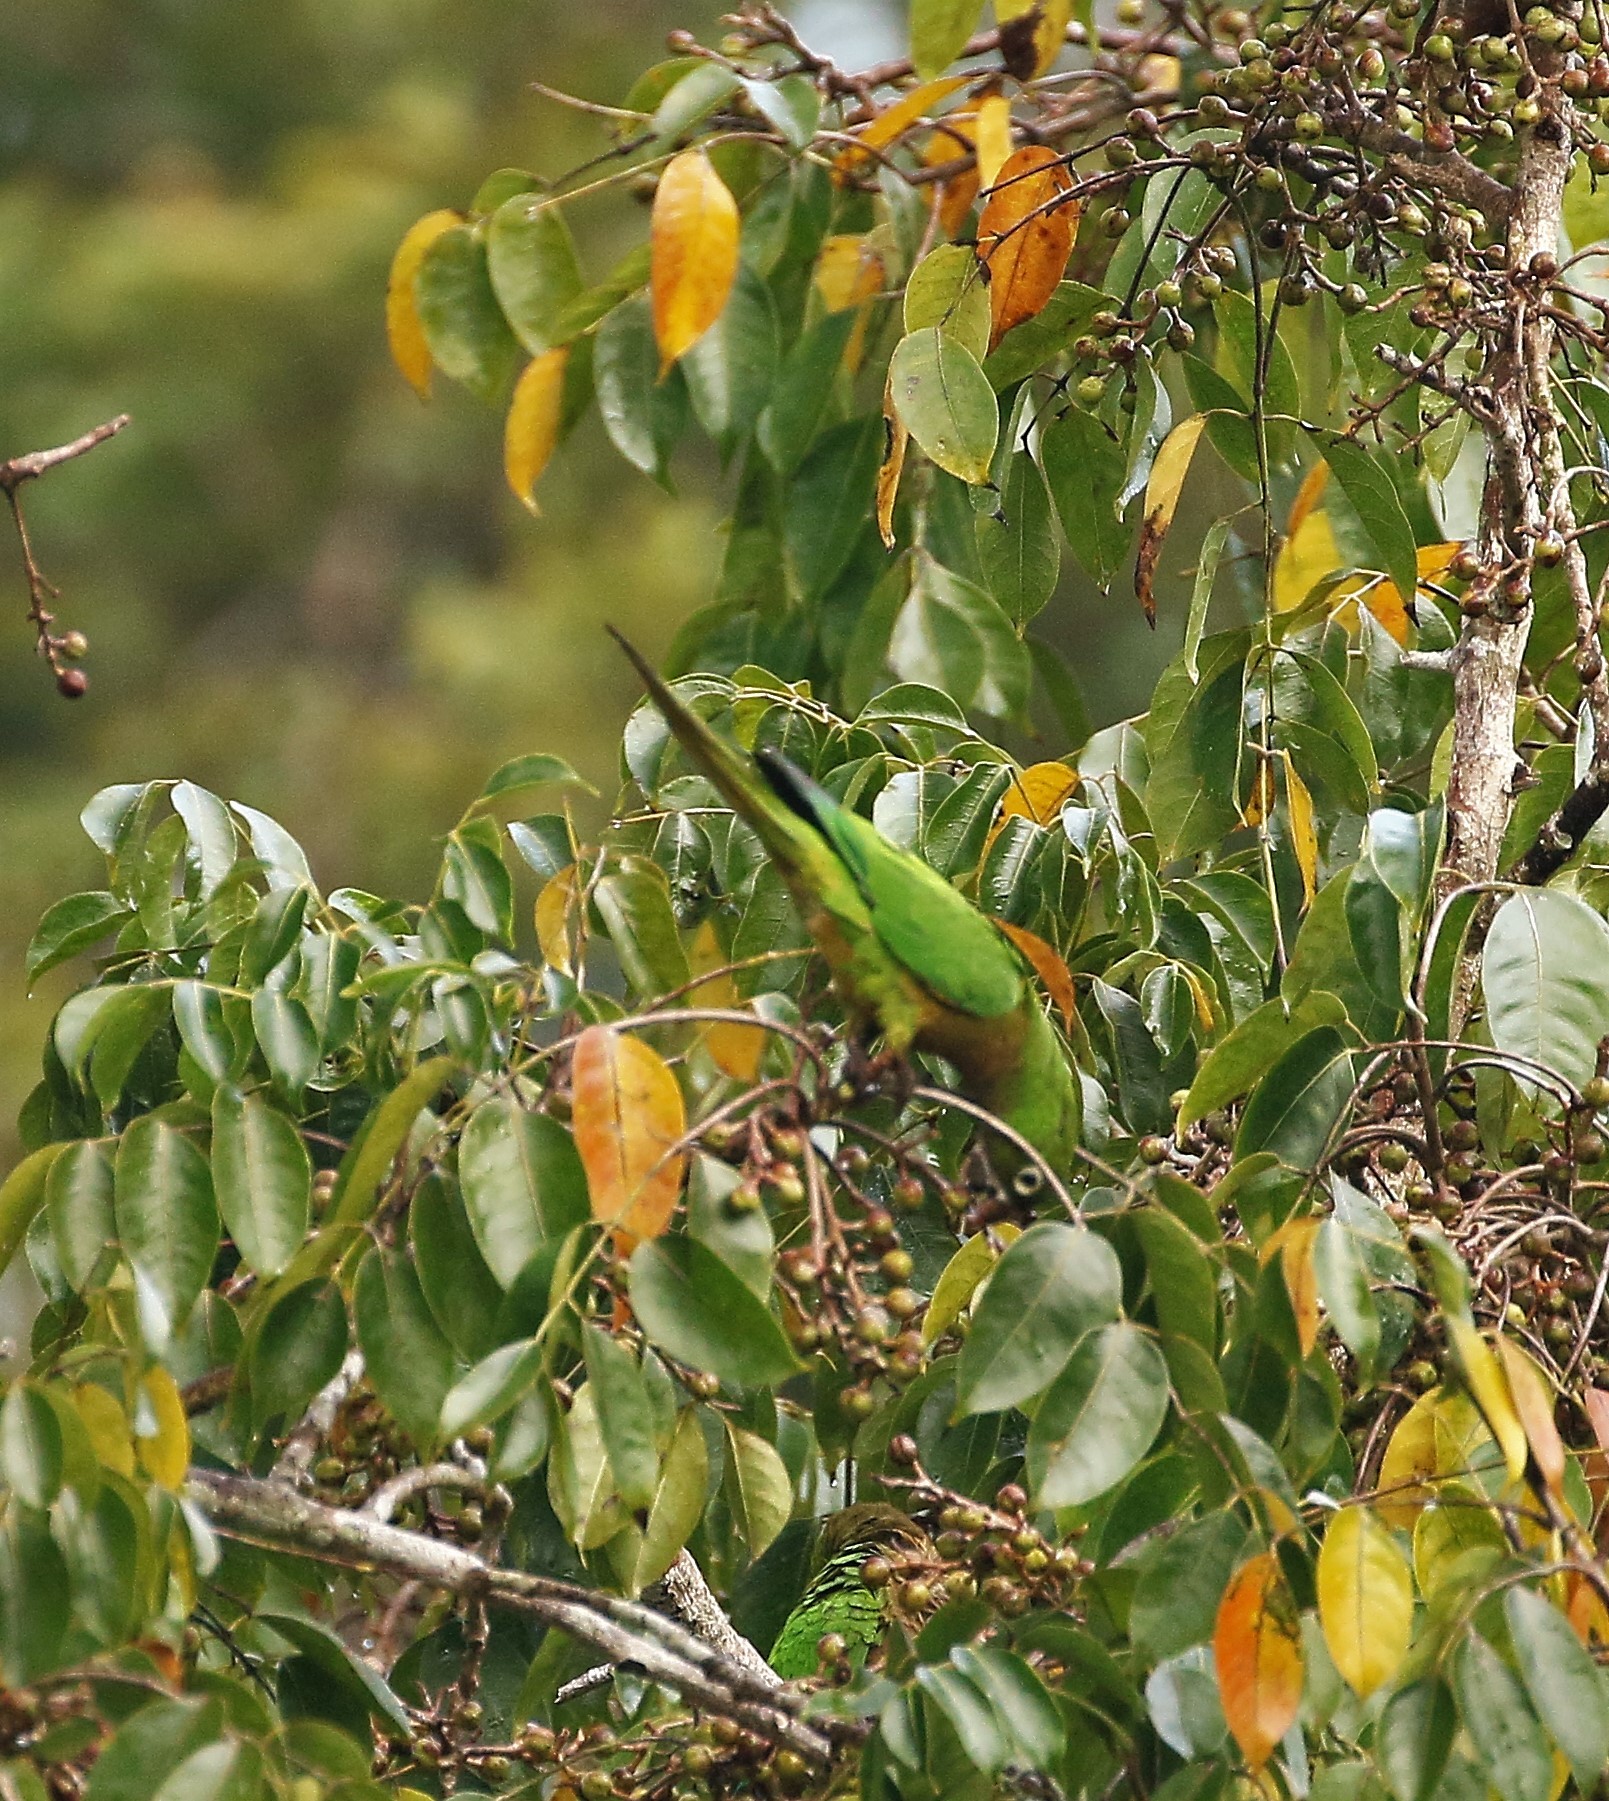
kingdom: Animalia
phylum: Chordata
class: Aves
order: Psittaciformes
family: Psittacidae
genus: Aratinga
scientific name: Aratinga nana
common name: Olive-throated parakeet
